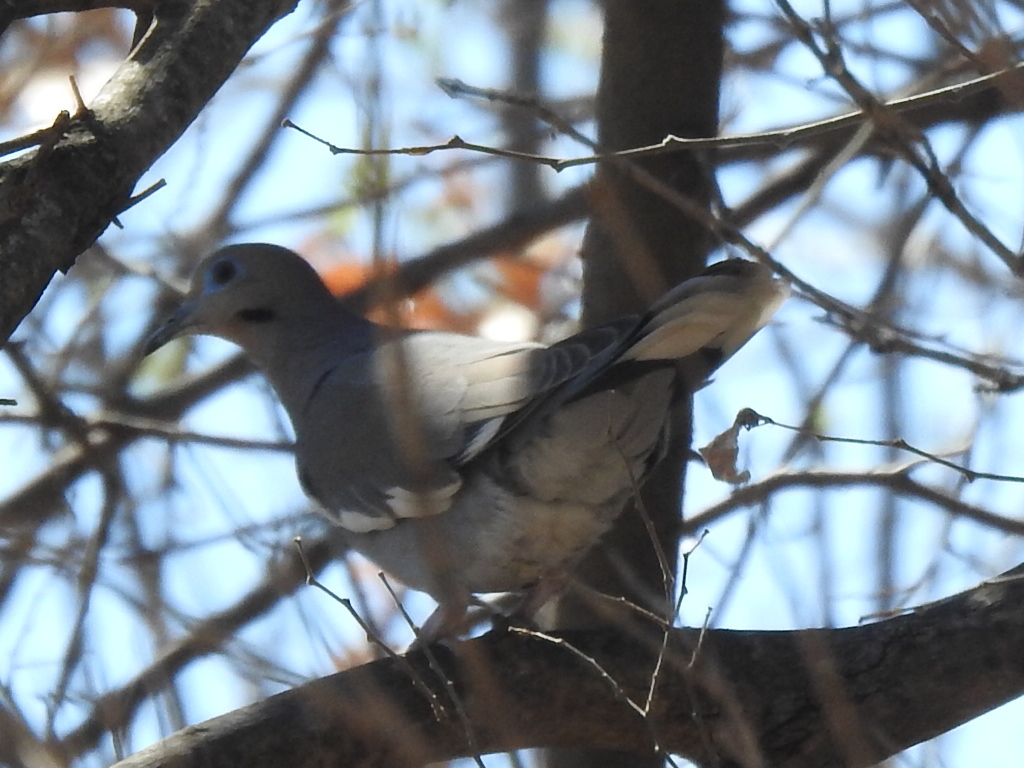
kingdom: Animalia
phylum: Chordata
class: Aves
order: Columbiformes
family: Columbidae
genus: Zenaida
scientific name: Zenaida asiatica
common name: White-winged dove
